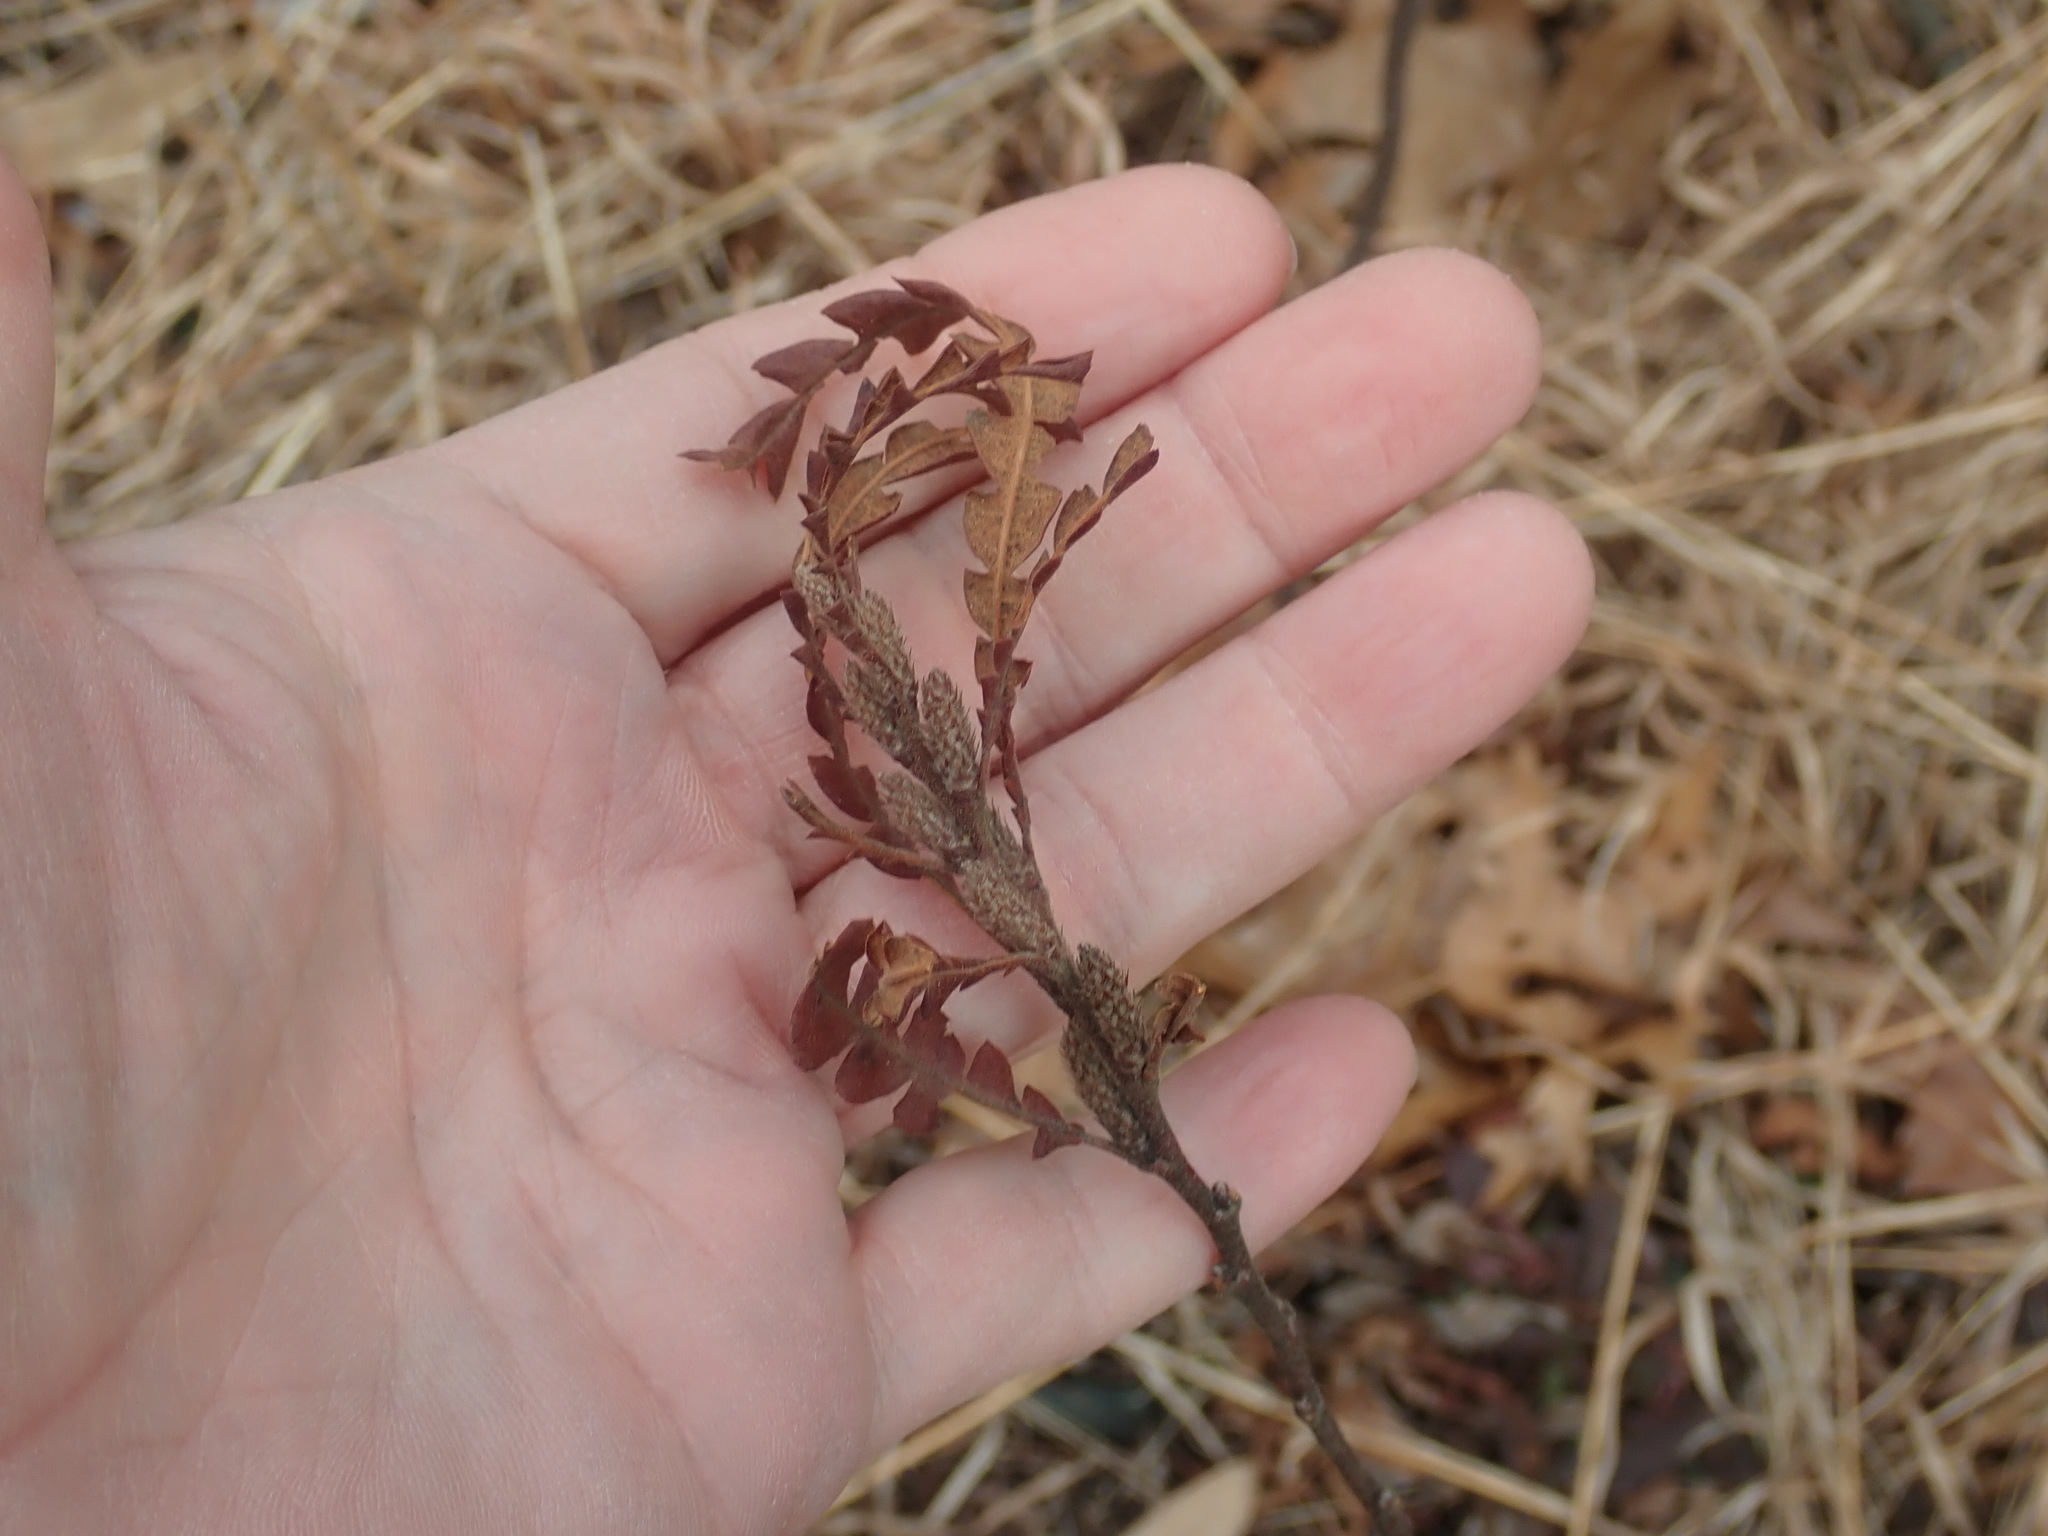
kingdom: Plantae
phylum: Tracheophyta
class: Magnoliopsida
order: Fagales
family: Myricaceae
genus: Comptonia
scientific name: Comptonia peregrina
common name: Sweet-fern
